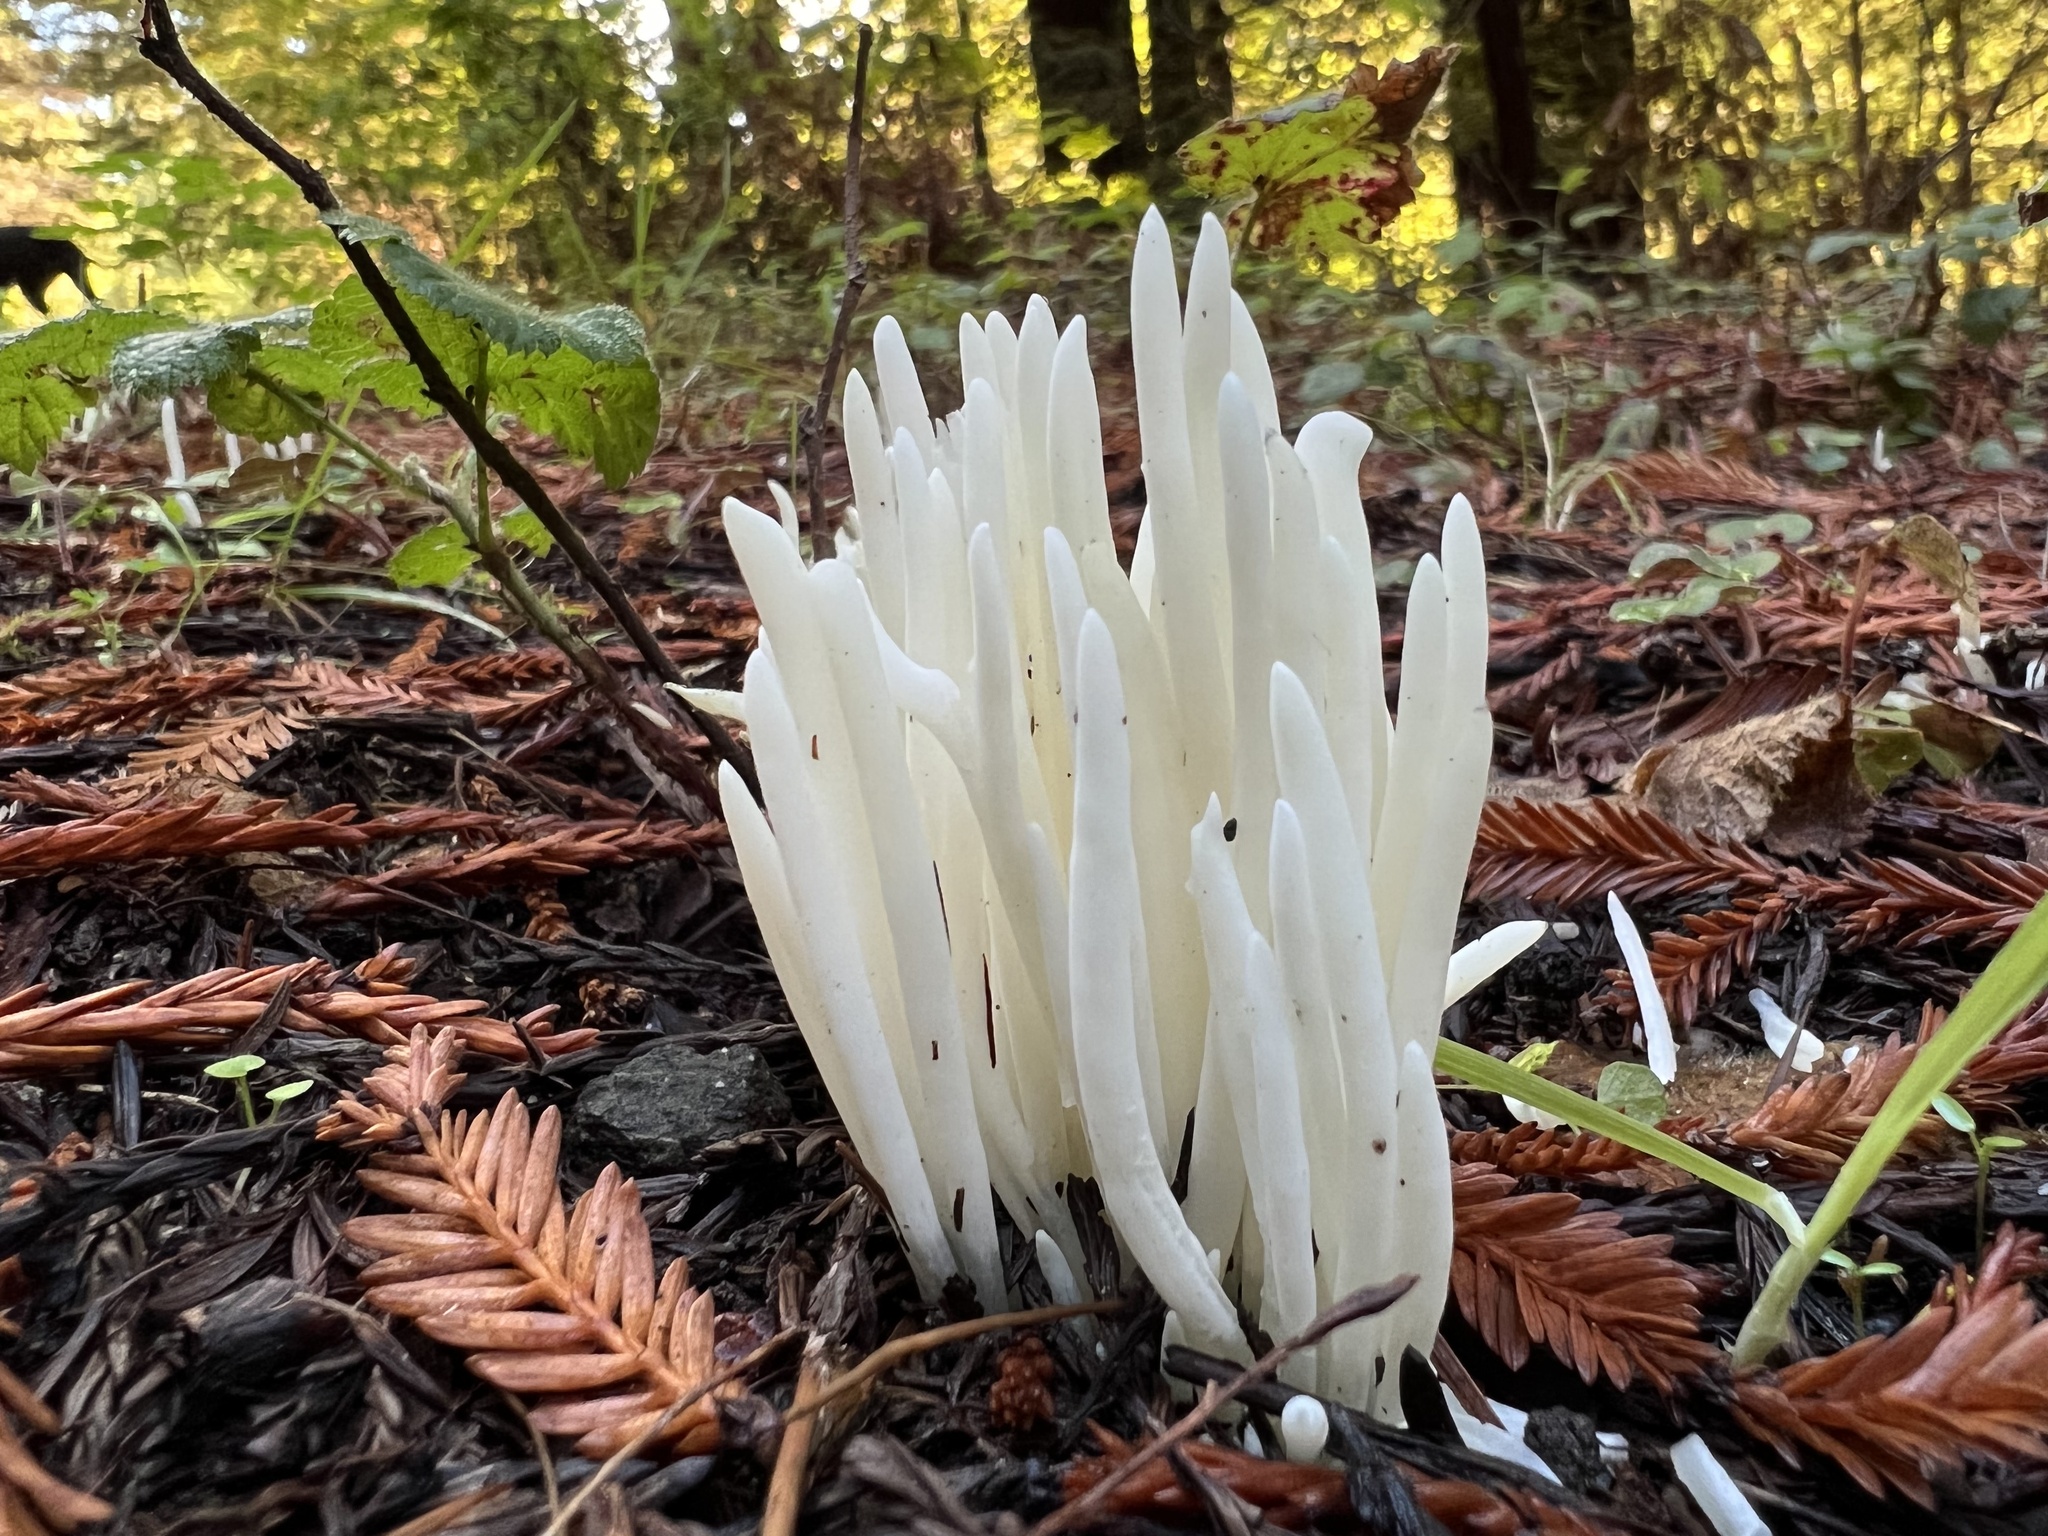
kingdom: Fungi
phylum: Basidiomycota
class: Agaricomycetes
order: Agaricales
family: Clavariaceae
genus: Clavaria
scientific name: Clavaria fragilis
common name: White spindles
